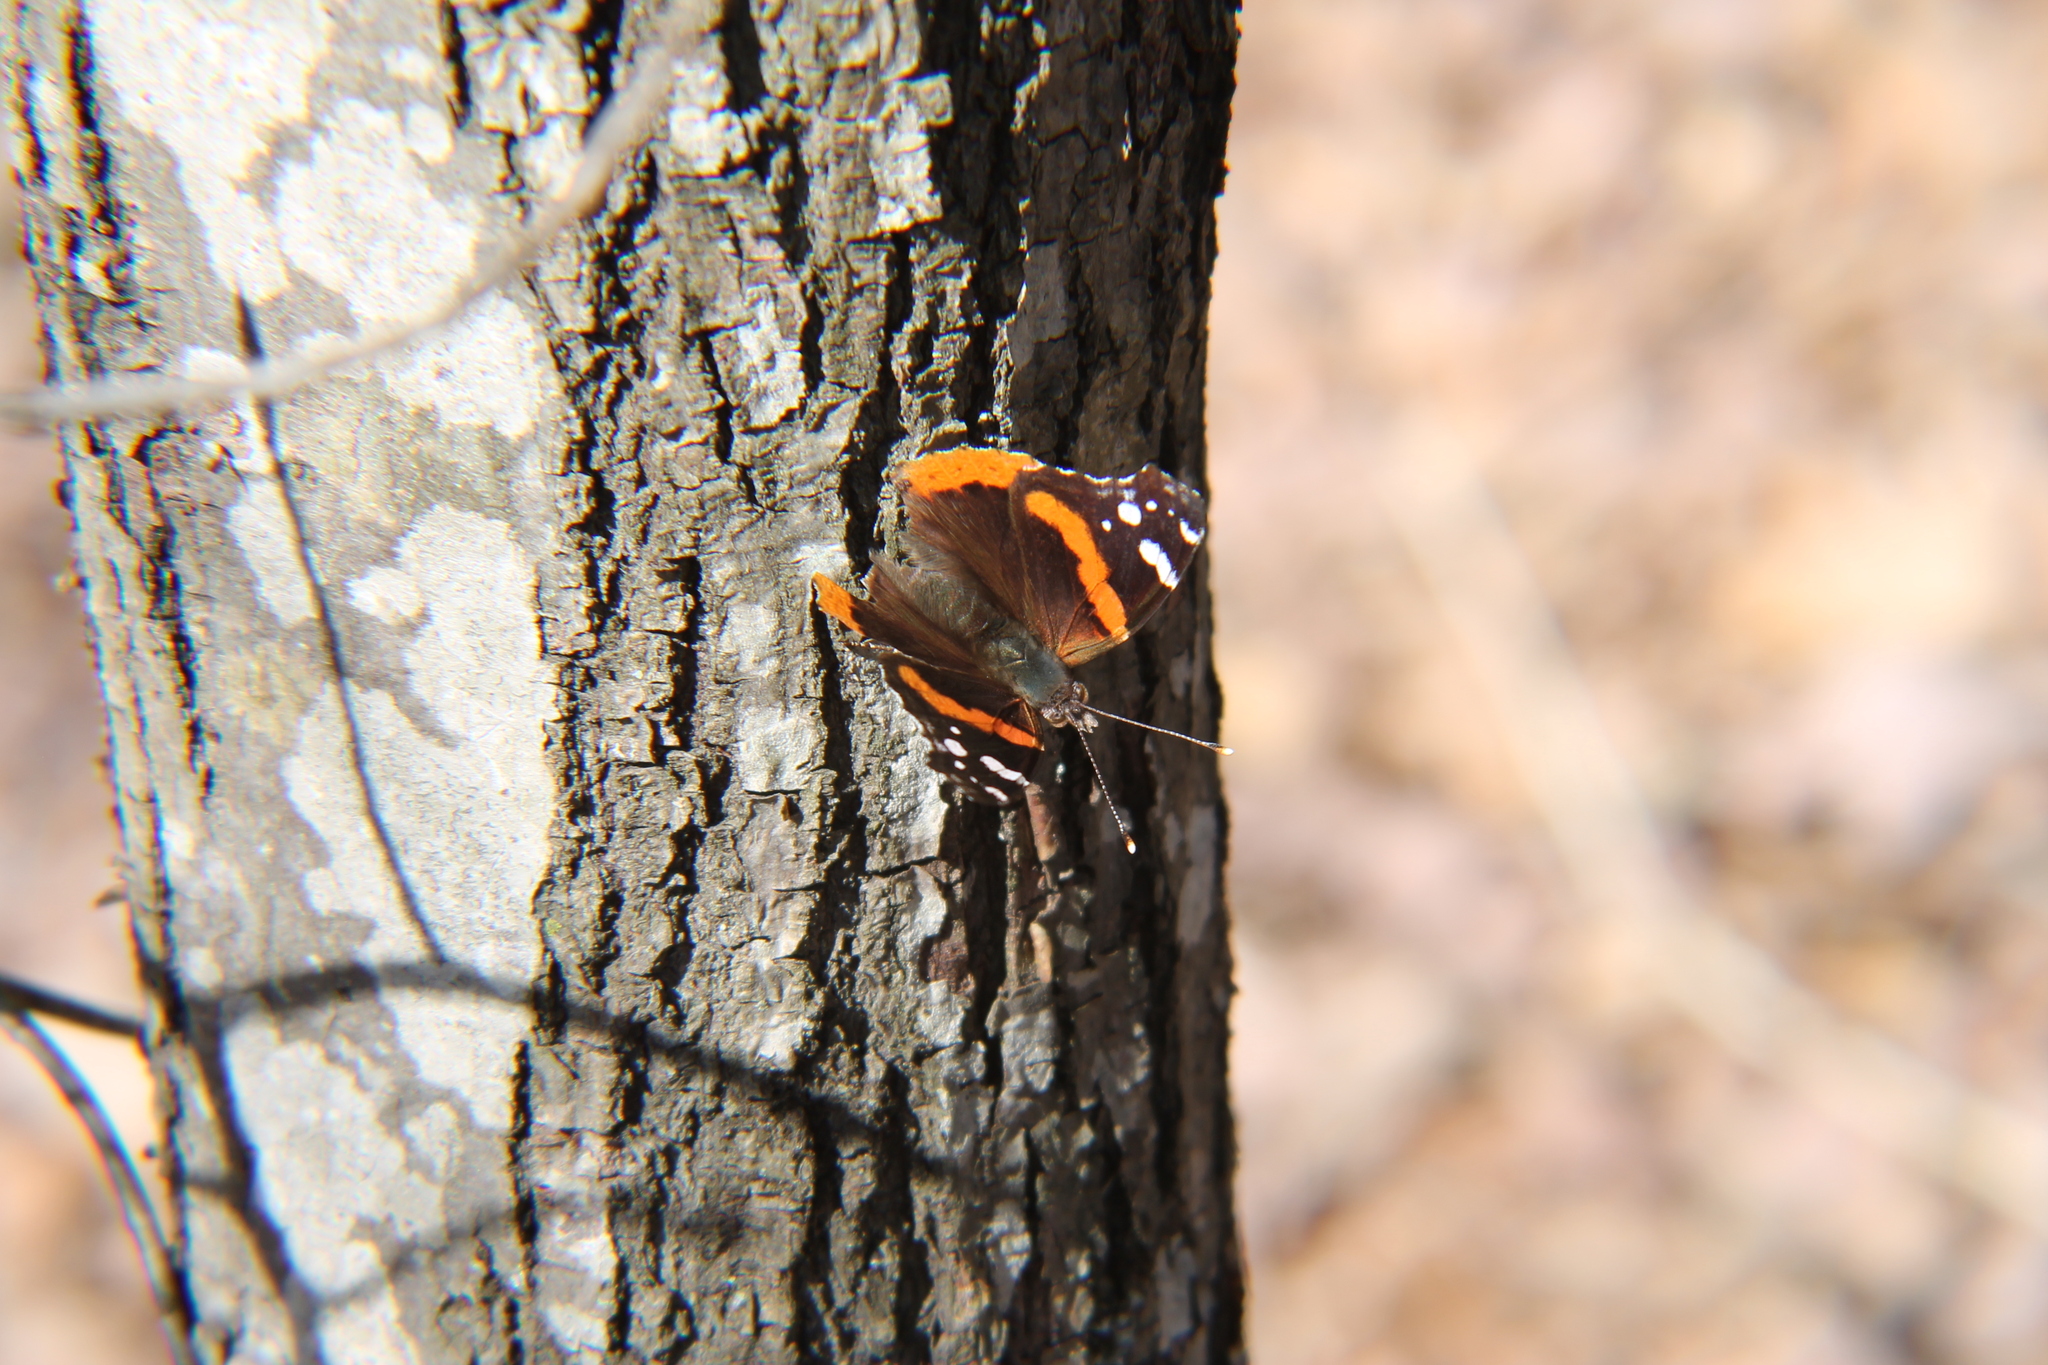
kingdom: Animalia
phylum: Arthropoda
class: Insecta
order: Lepidoptera
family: Nymphalidae
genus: Vanessa
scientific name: Vanessa atalanta
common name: Red admiral
